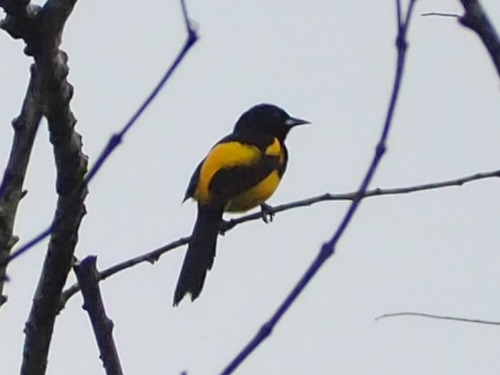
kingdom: Animalia
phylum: Chordata
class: Aves
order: Passeriformes
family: Icteridae
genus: Icterus
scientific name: Icterus prosthemelas
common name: Black-cowled oriole
